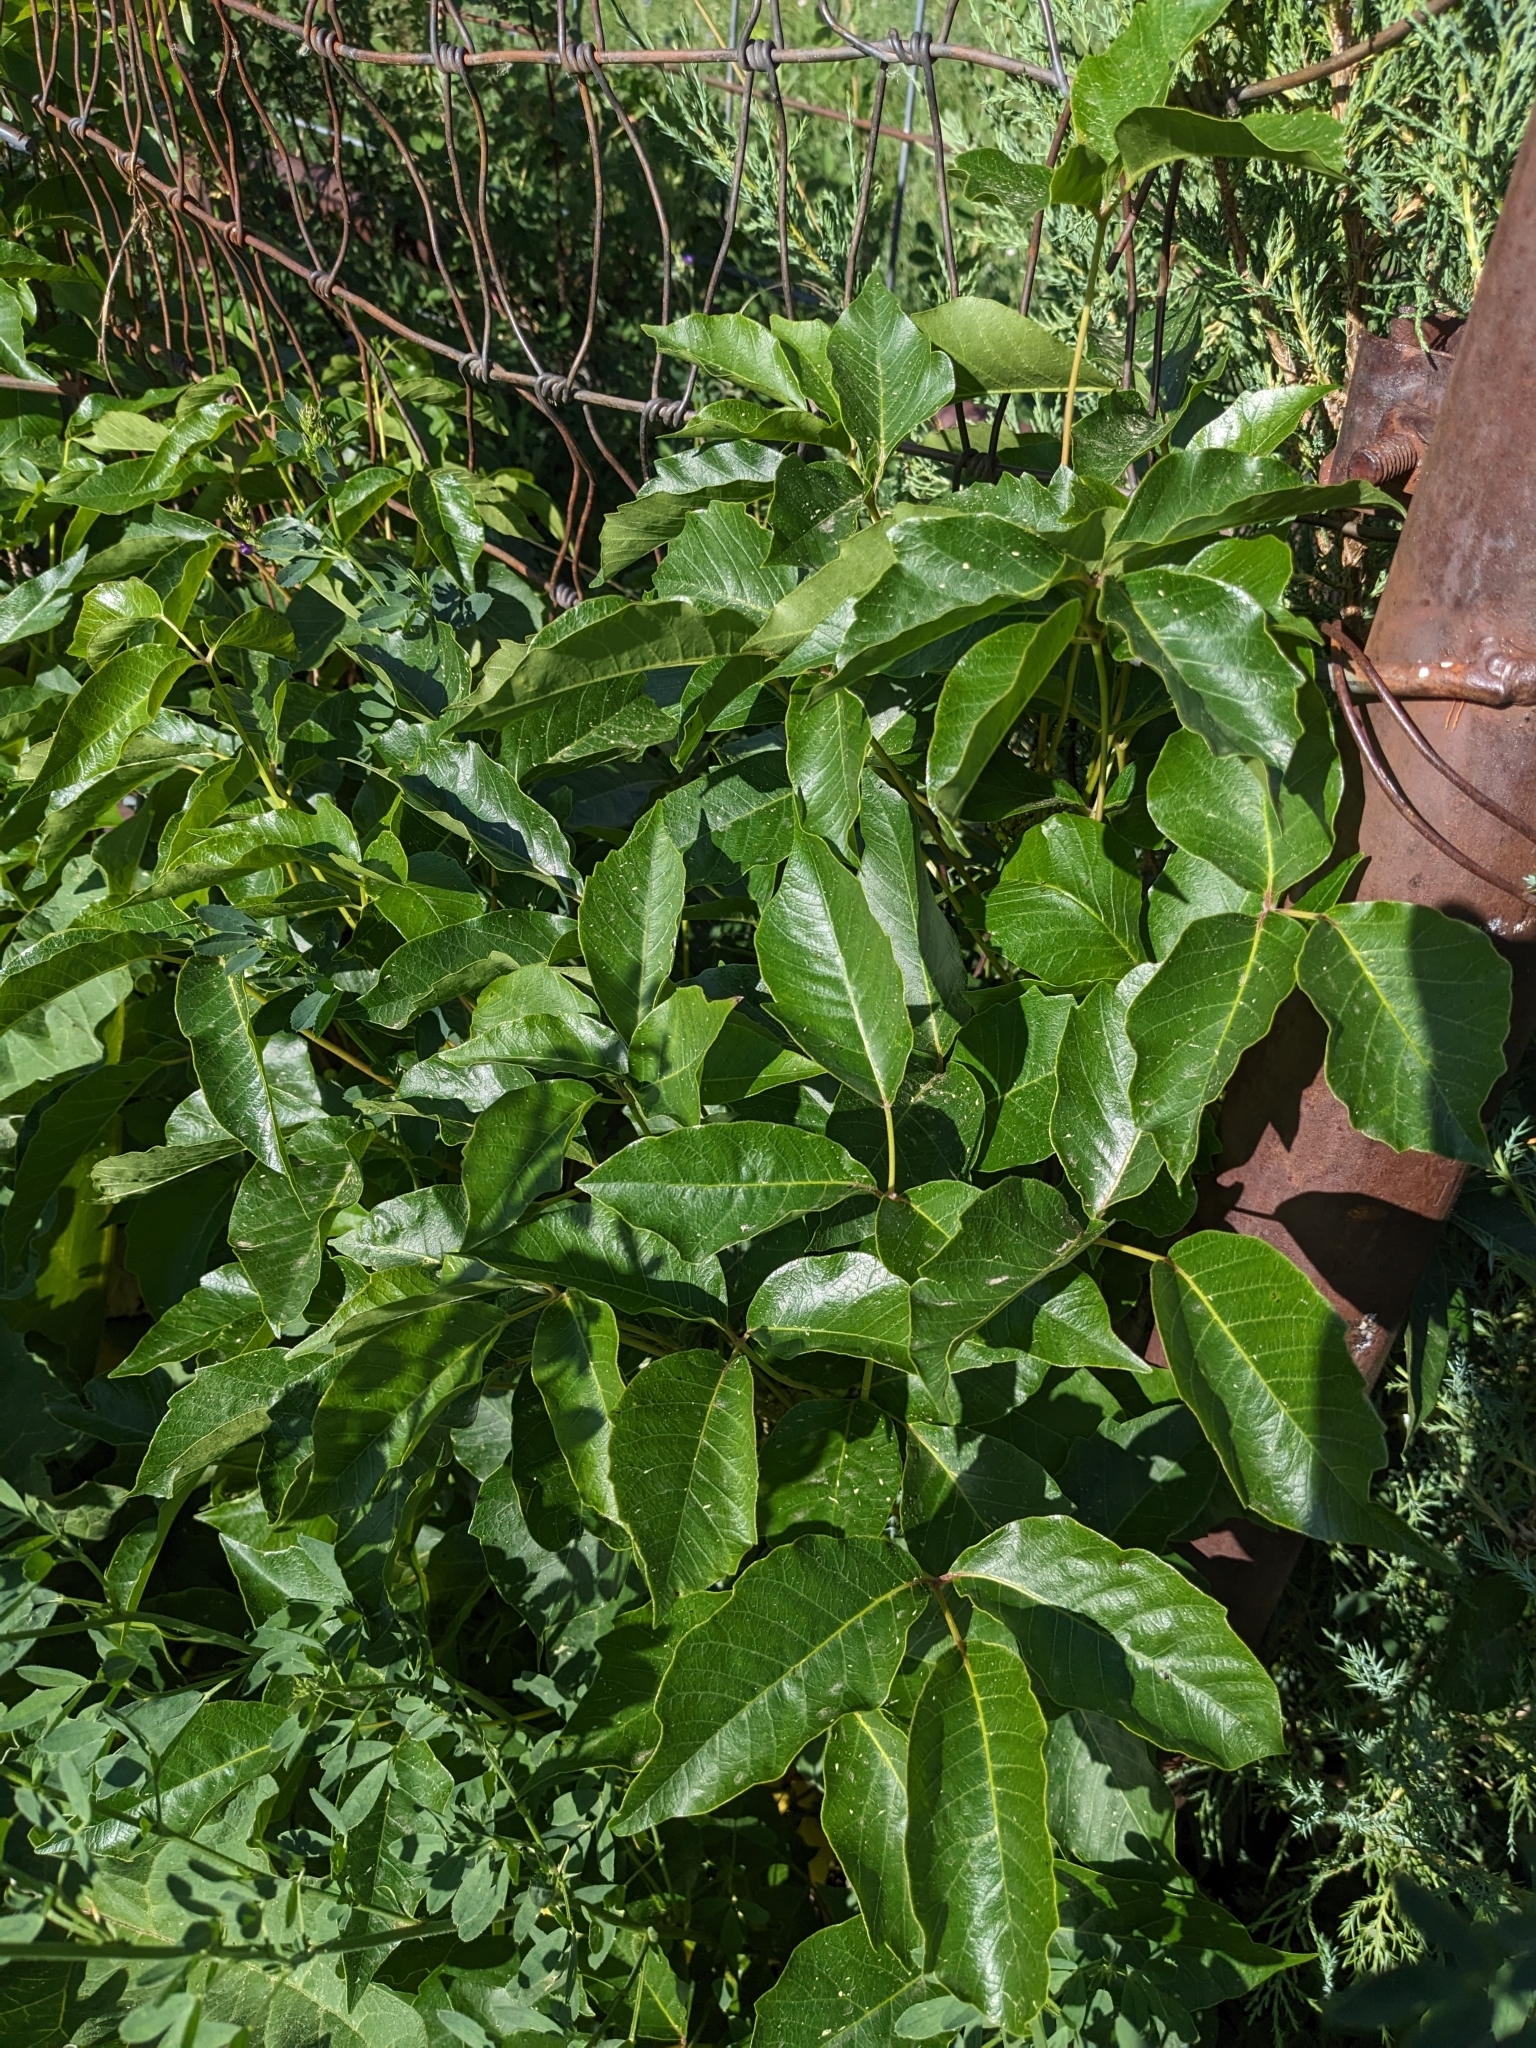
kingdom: Plantae
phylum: Tracheophyta
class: Magnoliopsida
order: Sapindales
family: Anacardiaceae
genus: Toxicodendron
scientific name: Toxicodendron rydbergii
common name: Rydberg's poison-ivy
